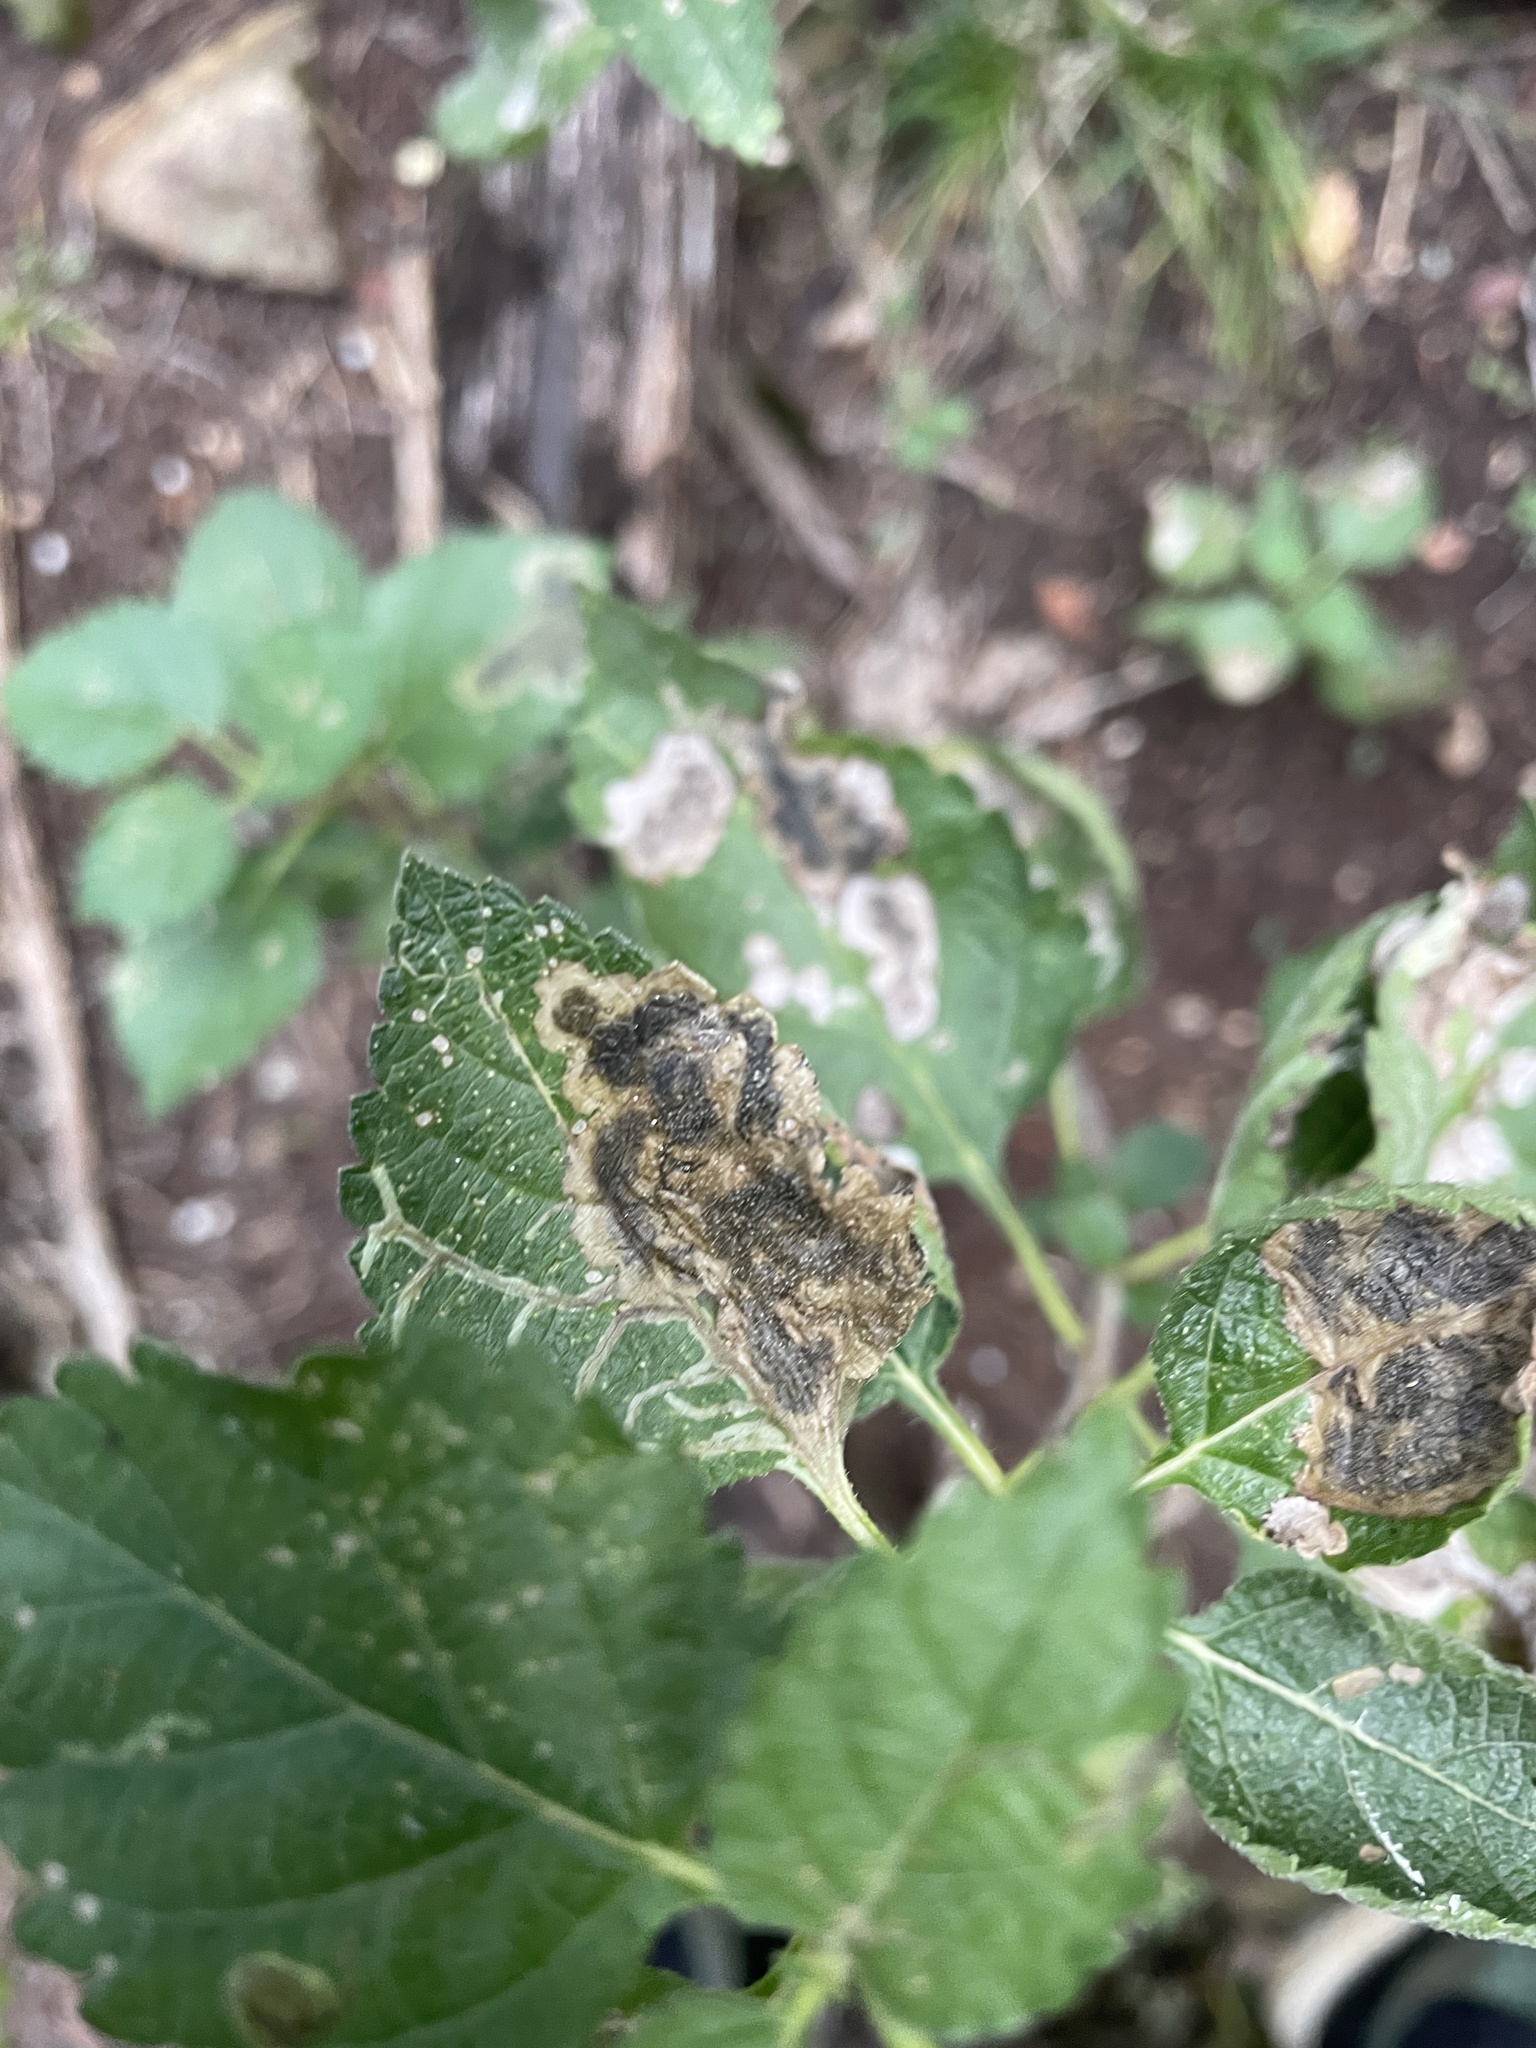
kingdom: Animalia
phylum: Arthropoda
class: Insecta
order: Diptera
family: Agromyzidae
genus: Calycomyza
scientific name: Calycomyza lantanae
